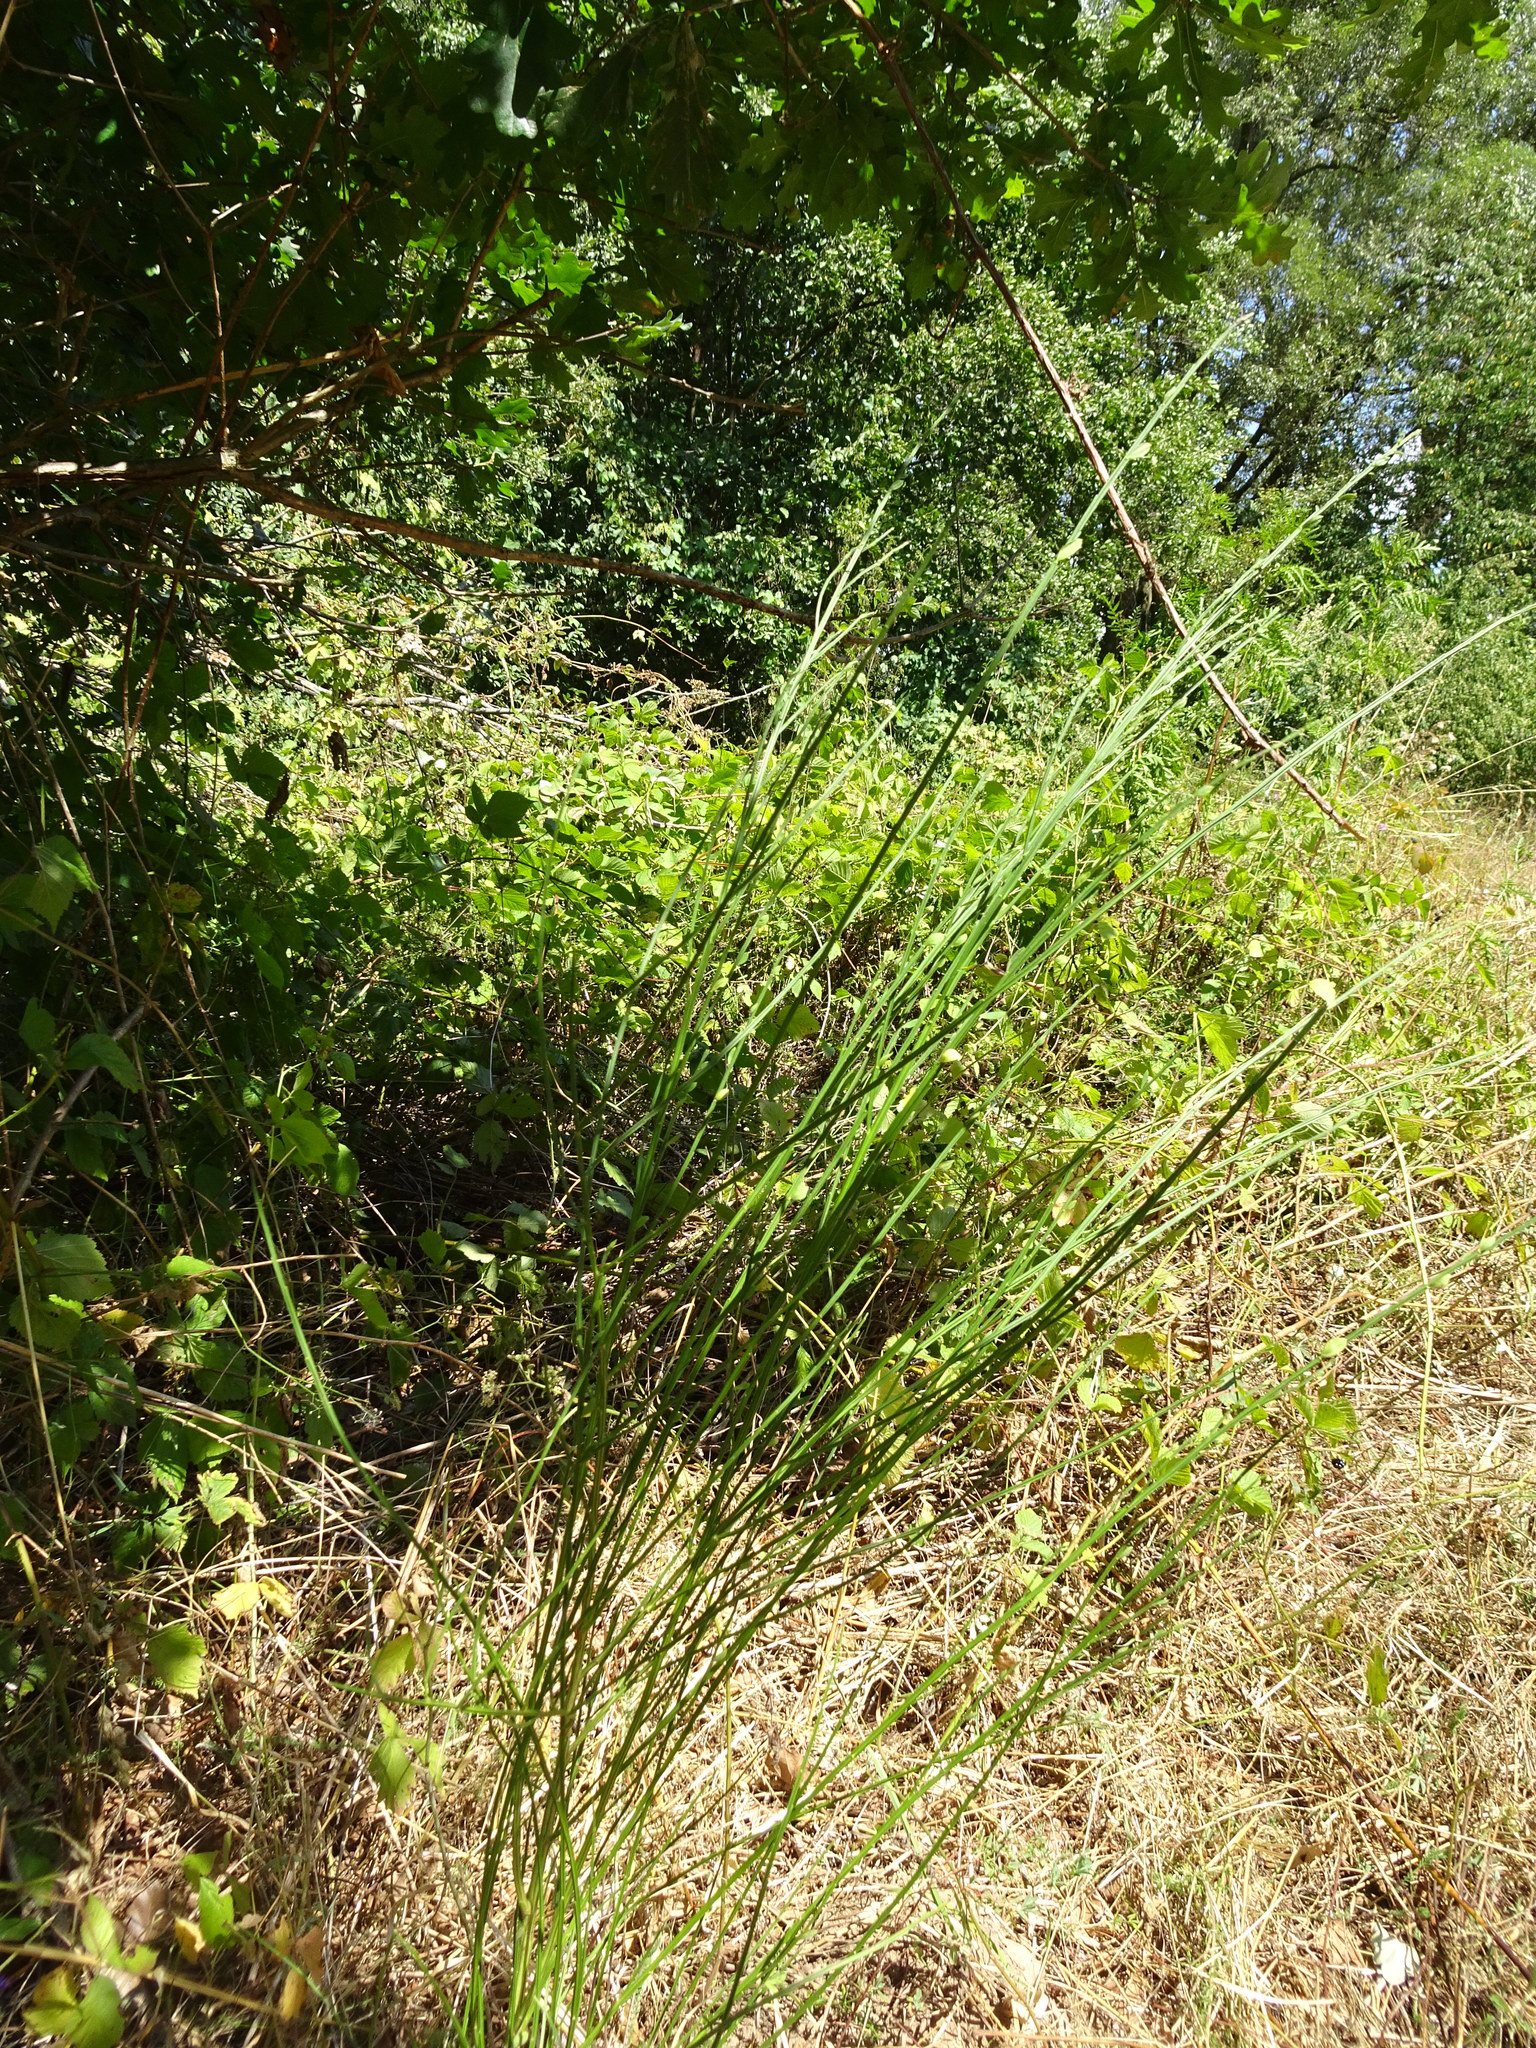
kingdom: Plantae
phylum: Tracheophyta
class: Magnoliopsida
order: Fabales
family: Fabaceae
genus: Cytisus
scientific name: Cytisus scoparius
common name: Scotch broom
